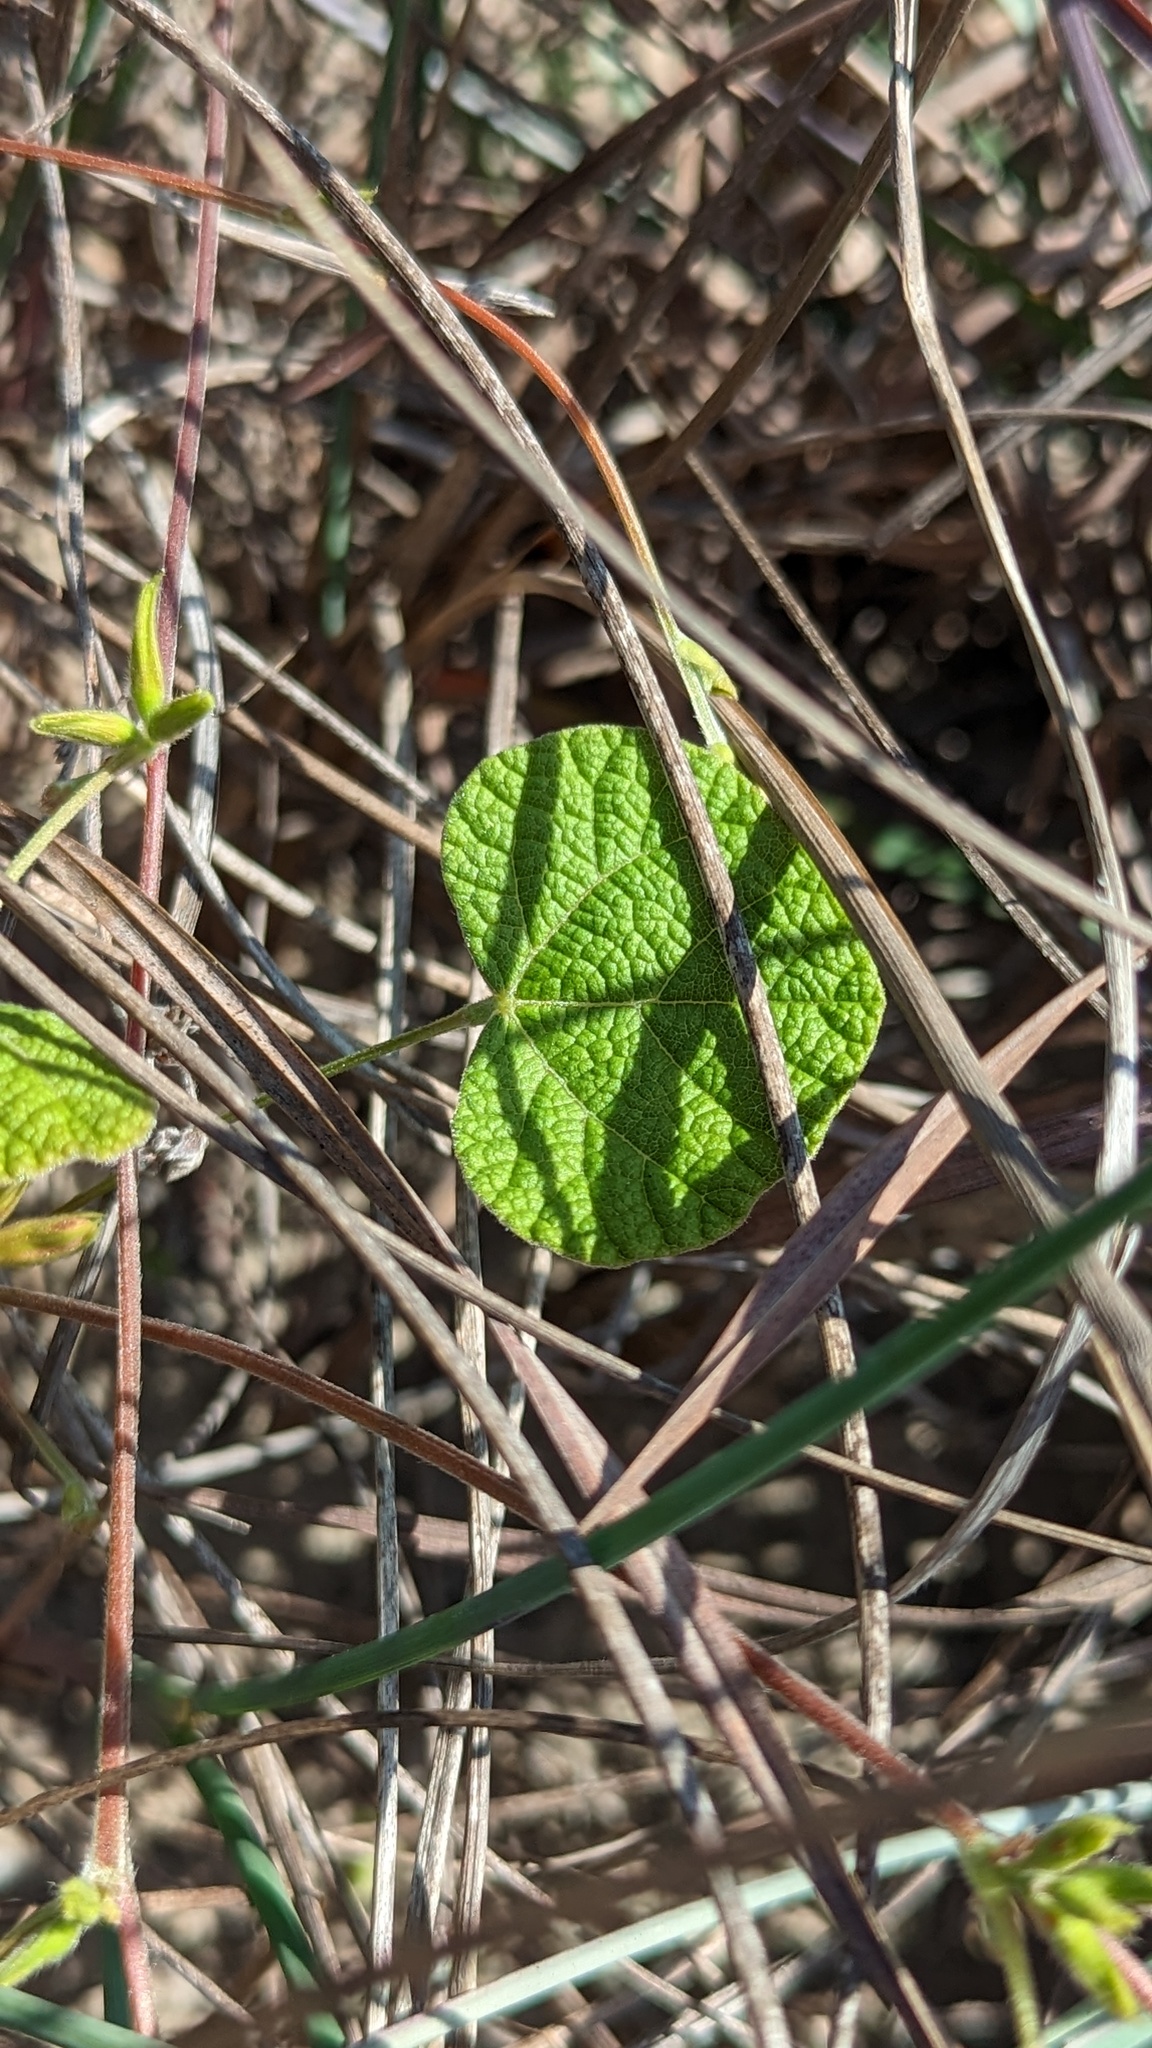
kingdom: Plantae
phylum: Tracheophyta
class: Magnoliopsida
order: Fabales
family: Fabaceae
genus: Rhynchosia
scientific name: Rhynchosia americana
